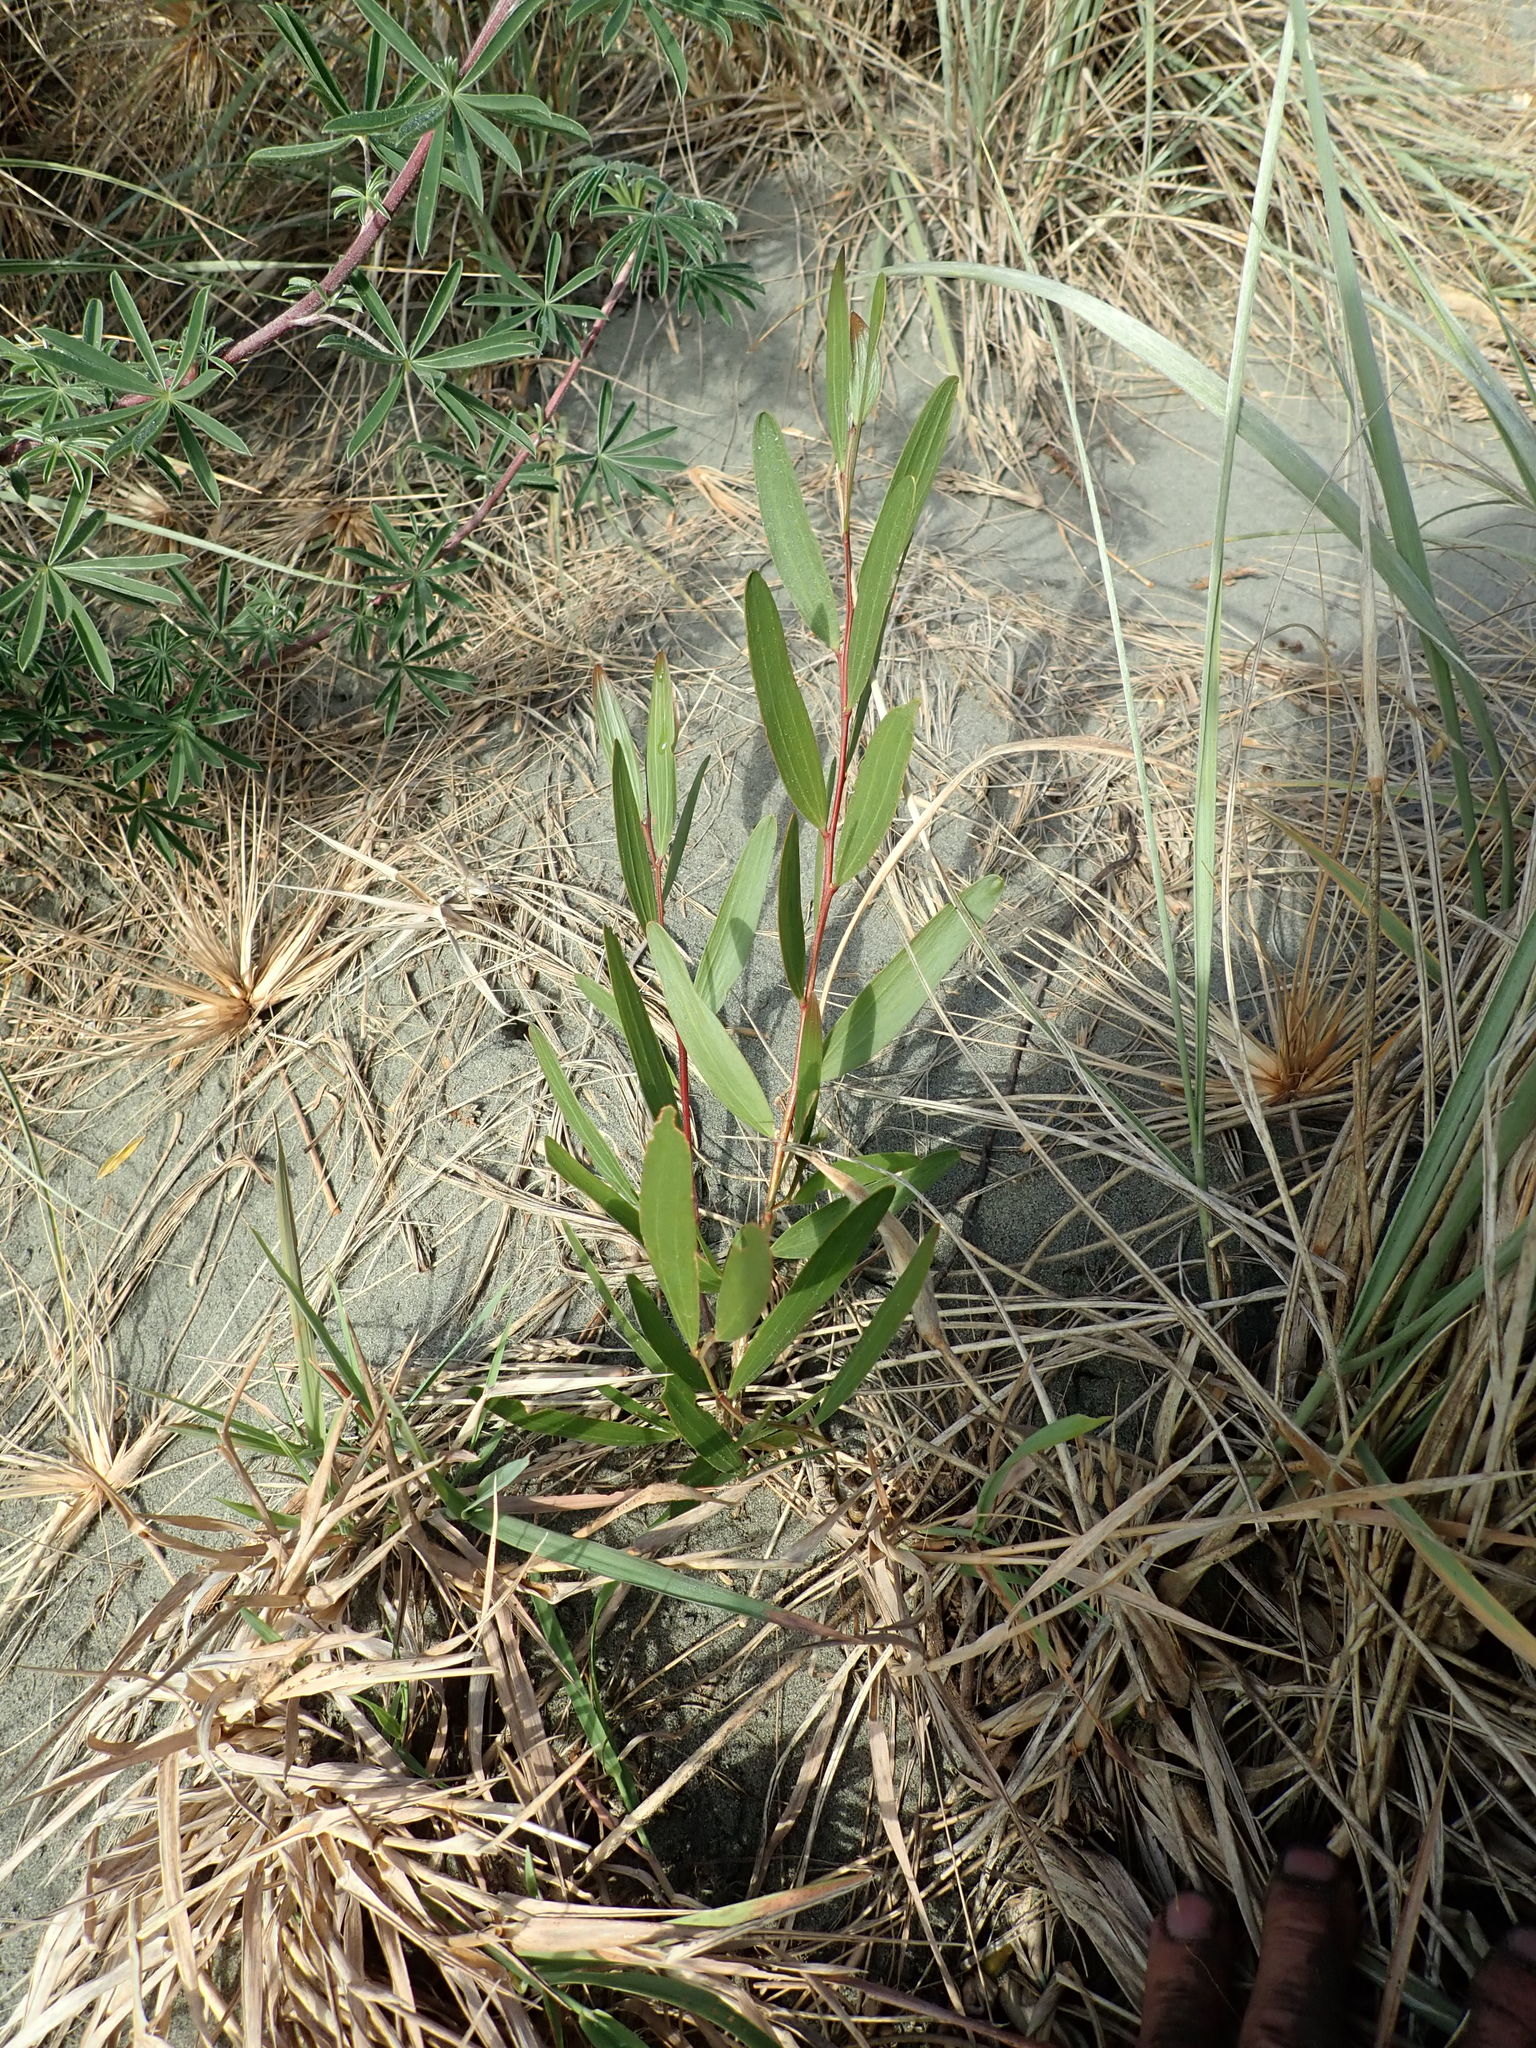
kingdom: Plantae
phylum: Tracheophyta
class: Magnoliopsida
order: Fabales
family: Fabaceae
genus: Acacia
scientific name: Acacia longifolia
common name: Sydney golden wattle
